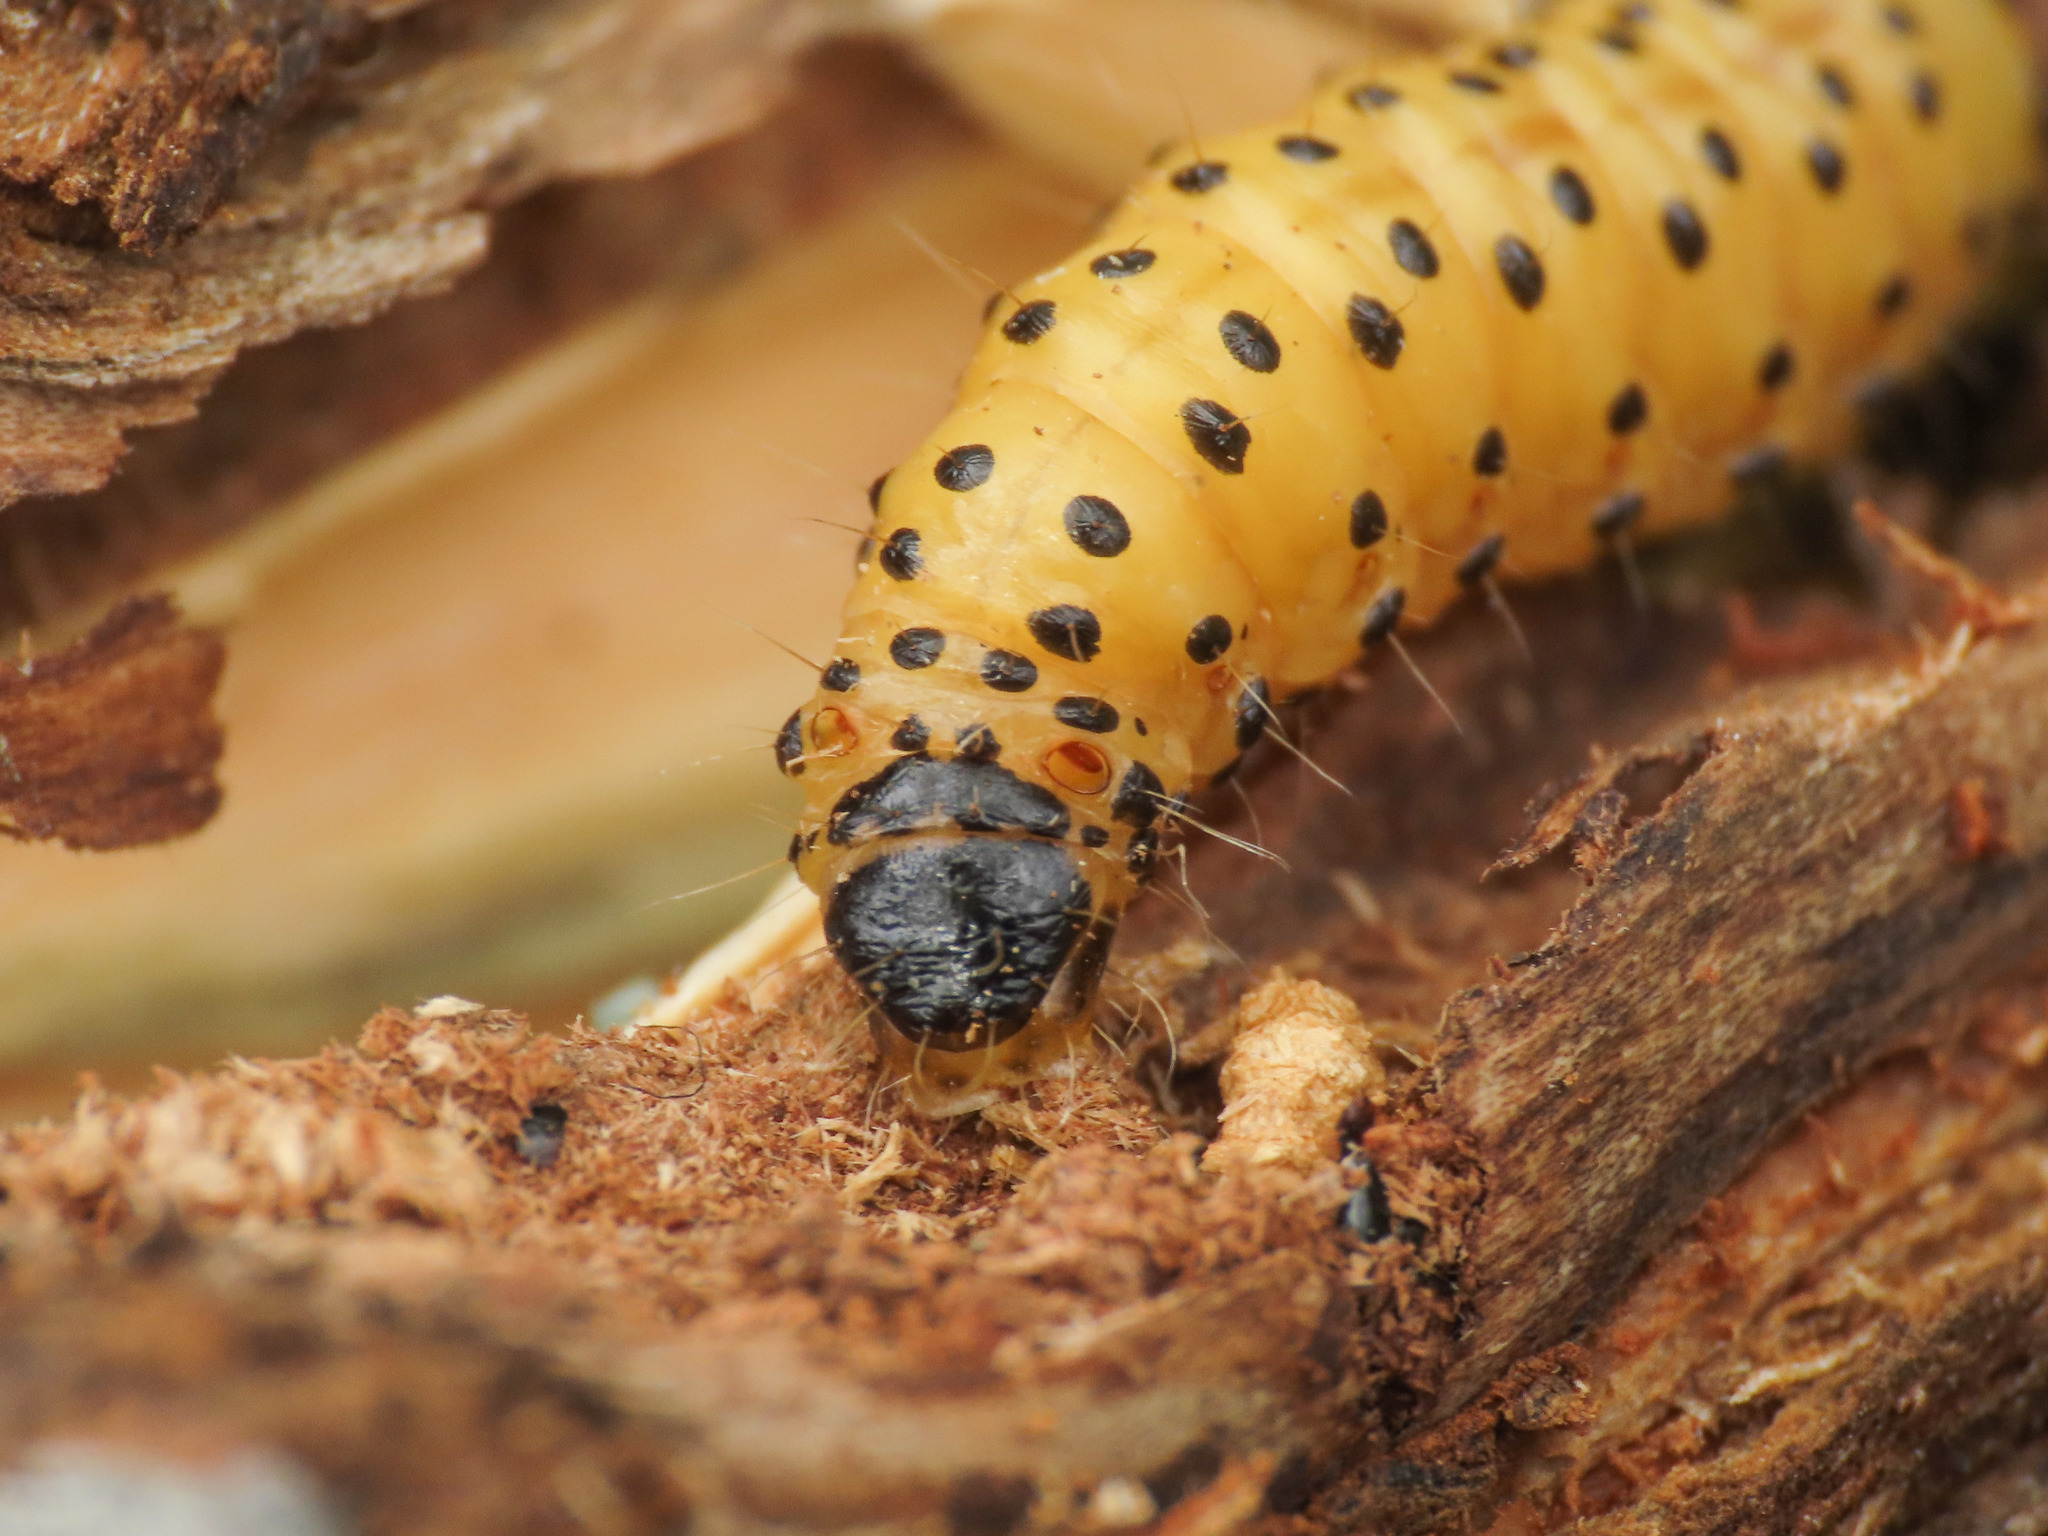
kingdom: Animalia
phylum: Arthropoda
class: Insecta
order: Lepidoptera
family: Cossidae
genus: Zeuzera
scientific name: Zeuzera pyrina
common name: Leopard moth
